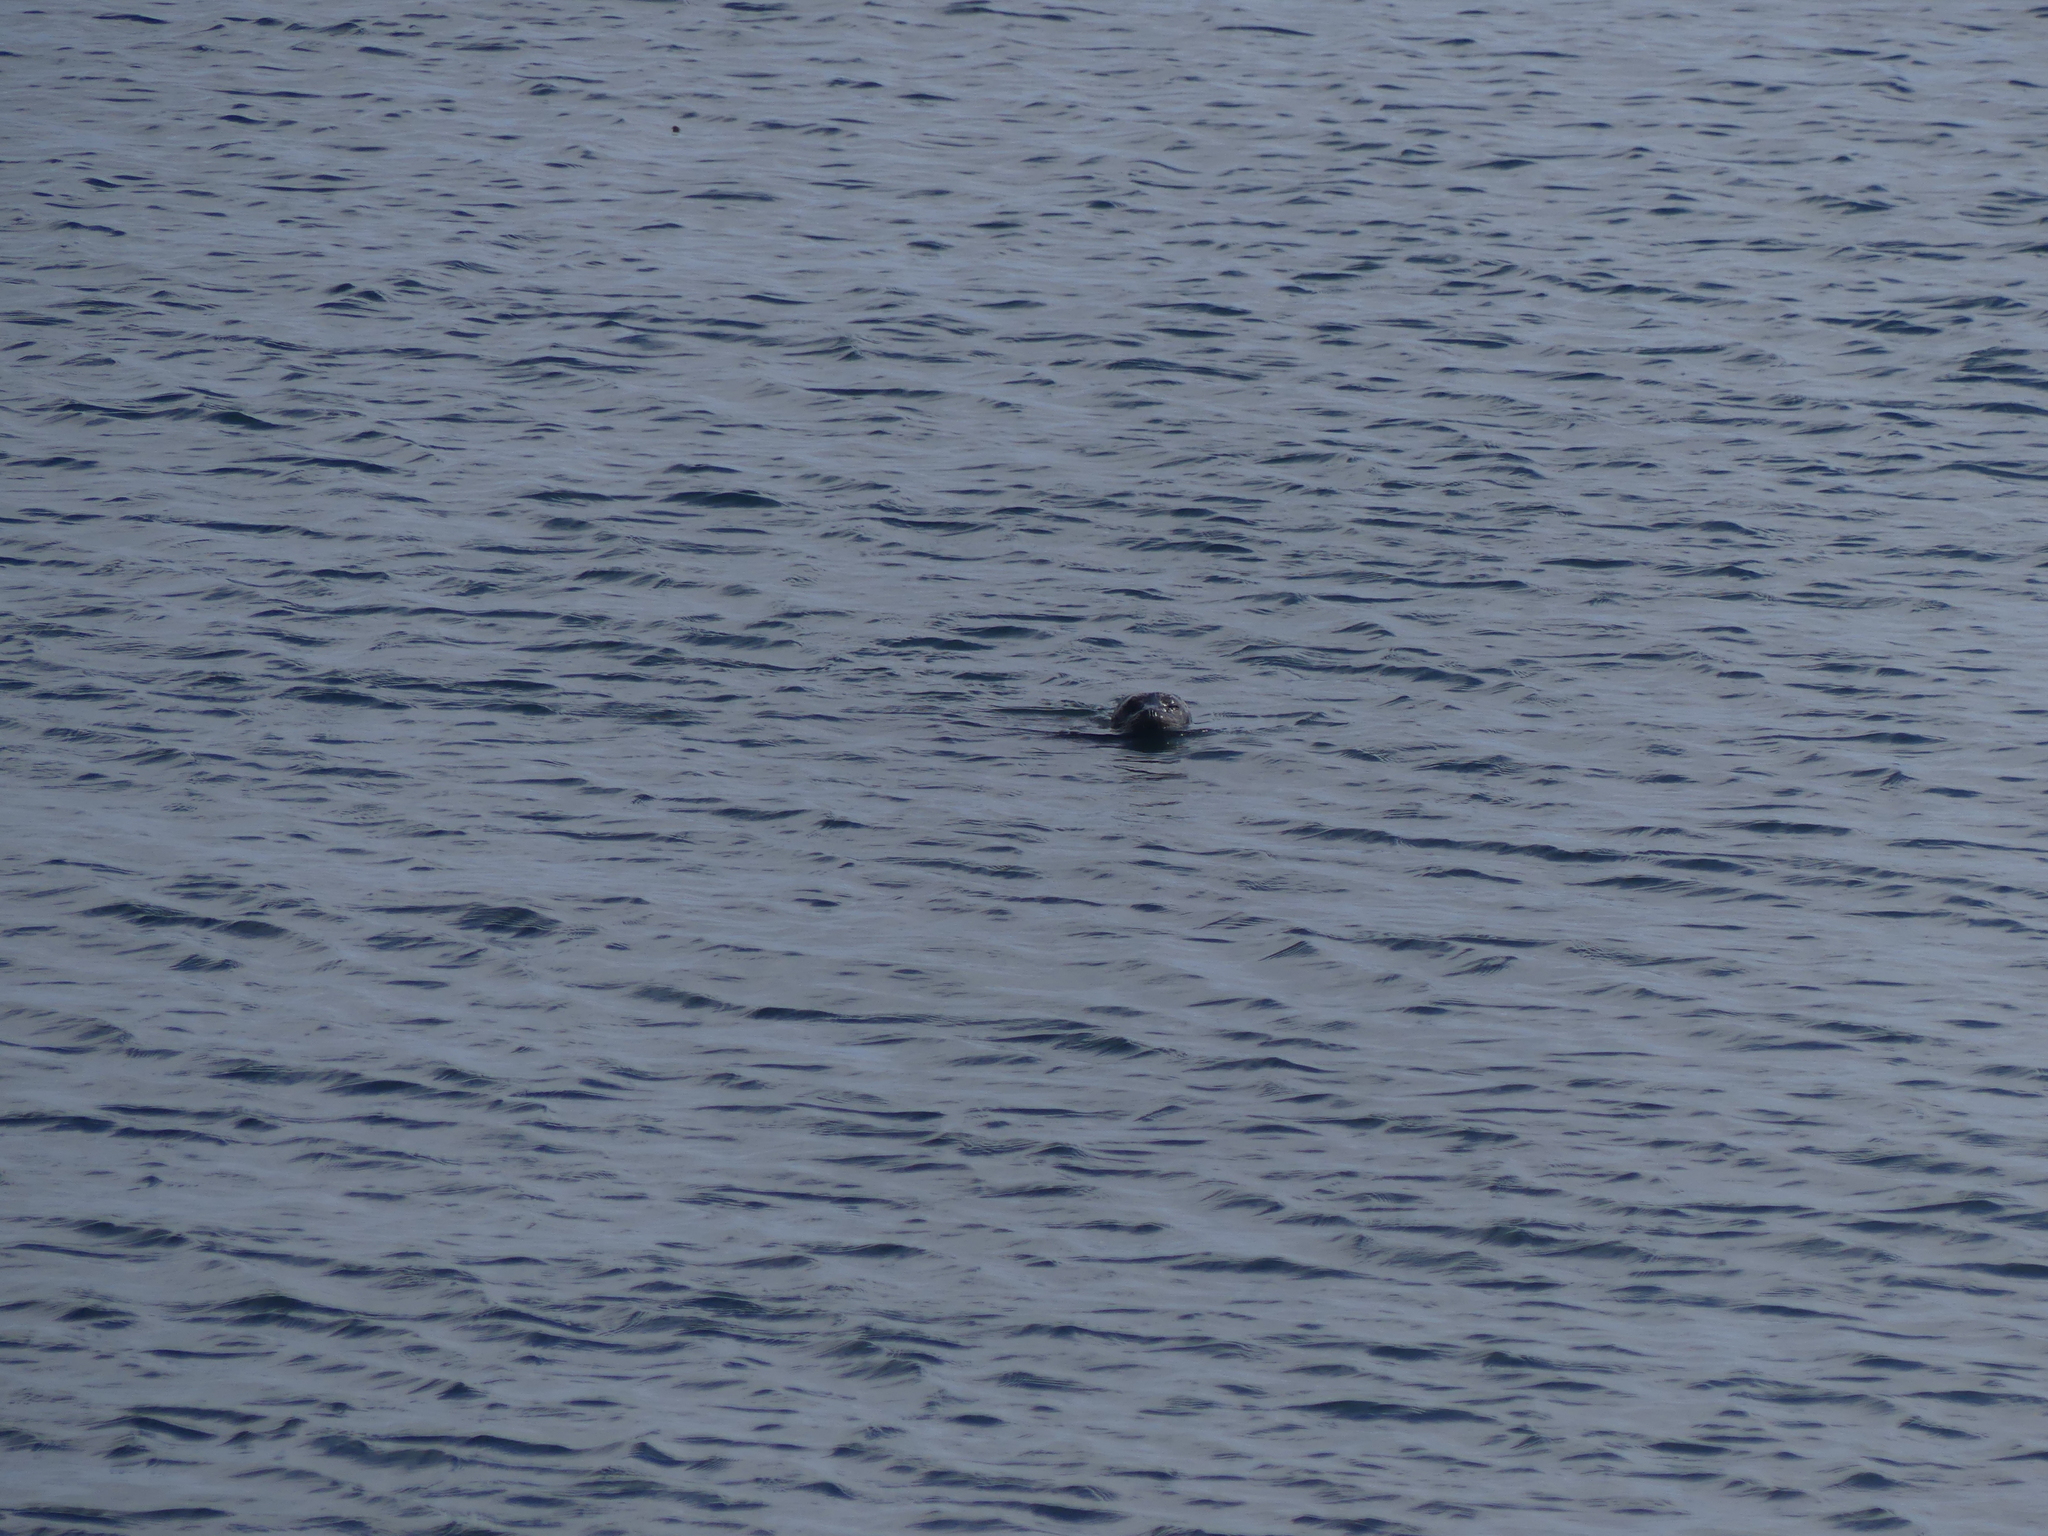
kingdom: Animalia
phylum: Chordata
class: Mammalia
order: Carnivora
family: Phocidae
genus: Phoca
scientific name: Phoca vitulina
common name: Harbor seal
